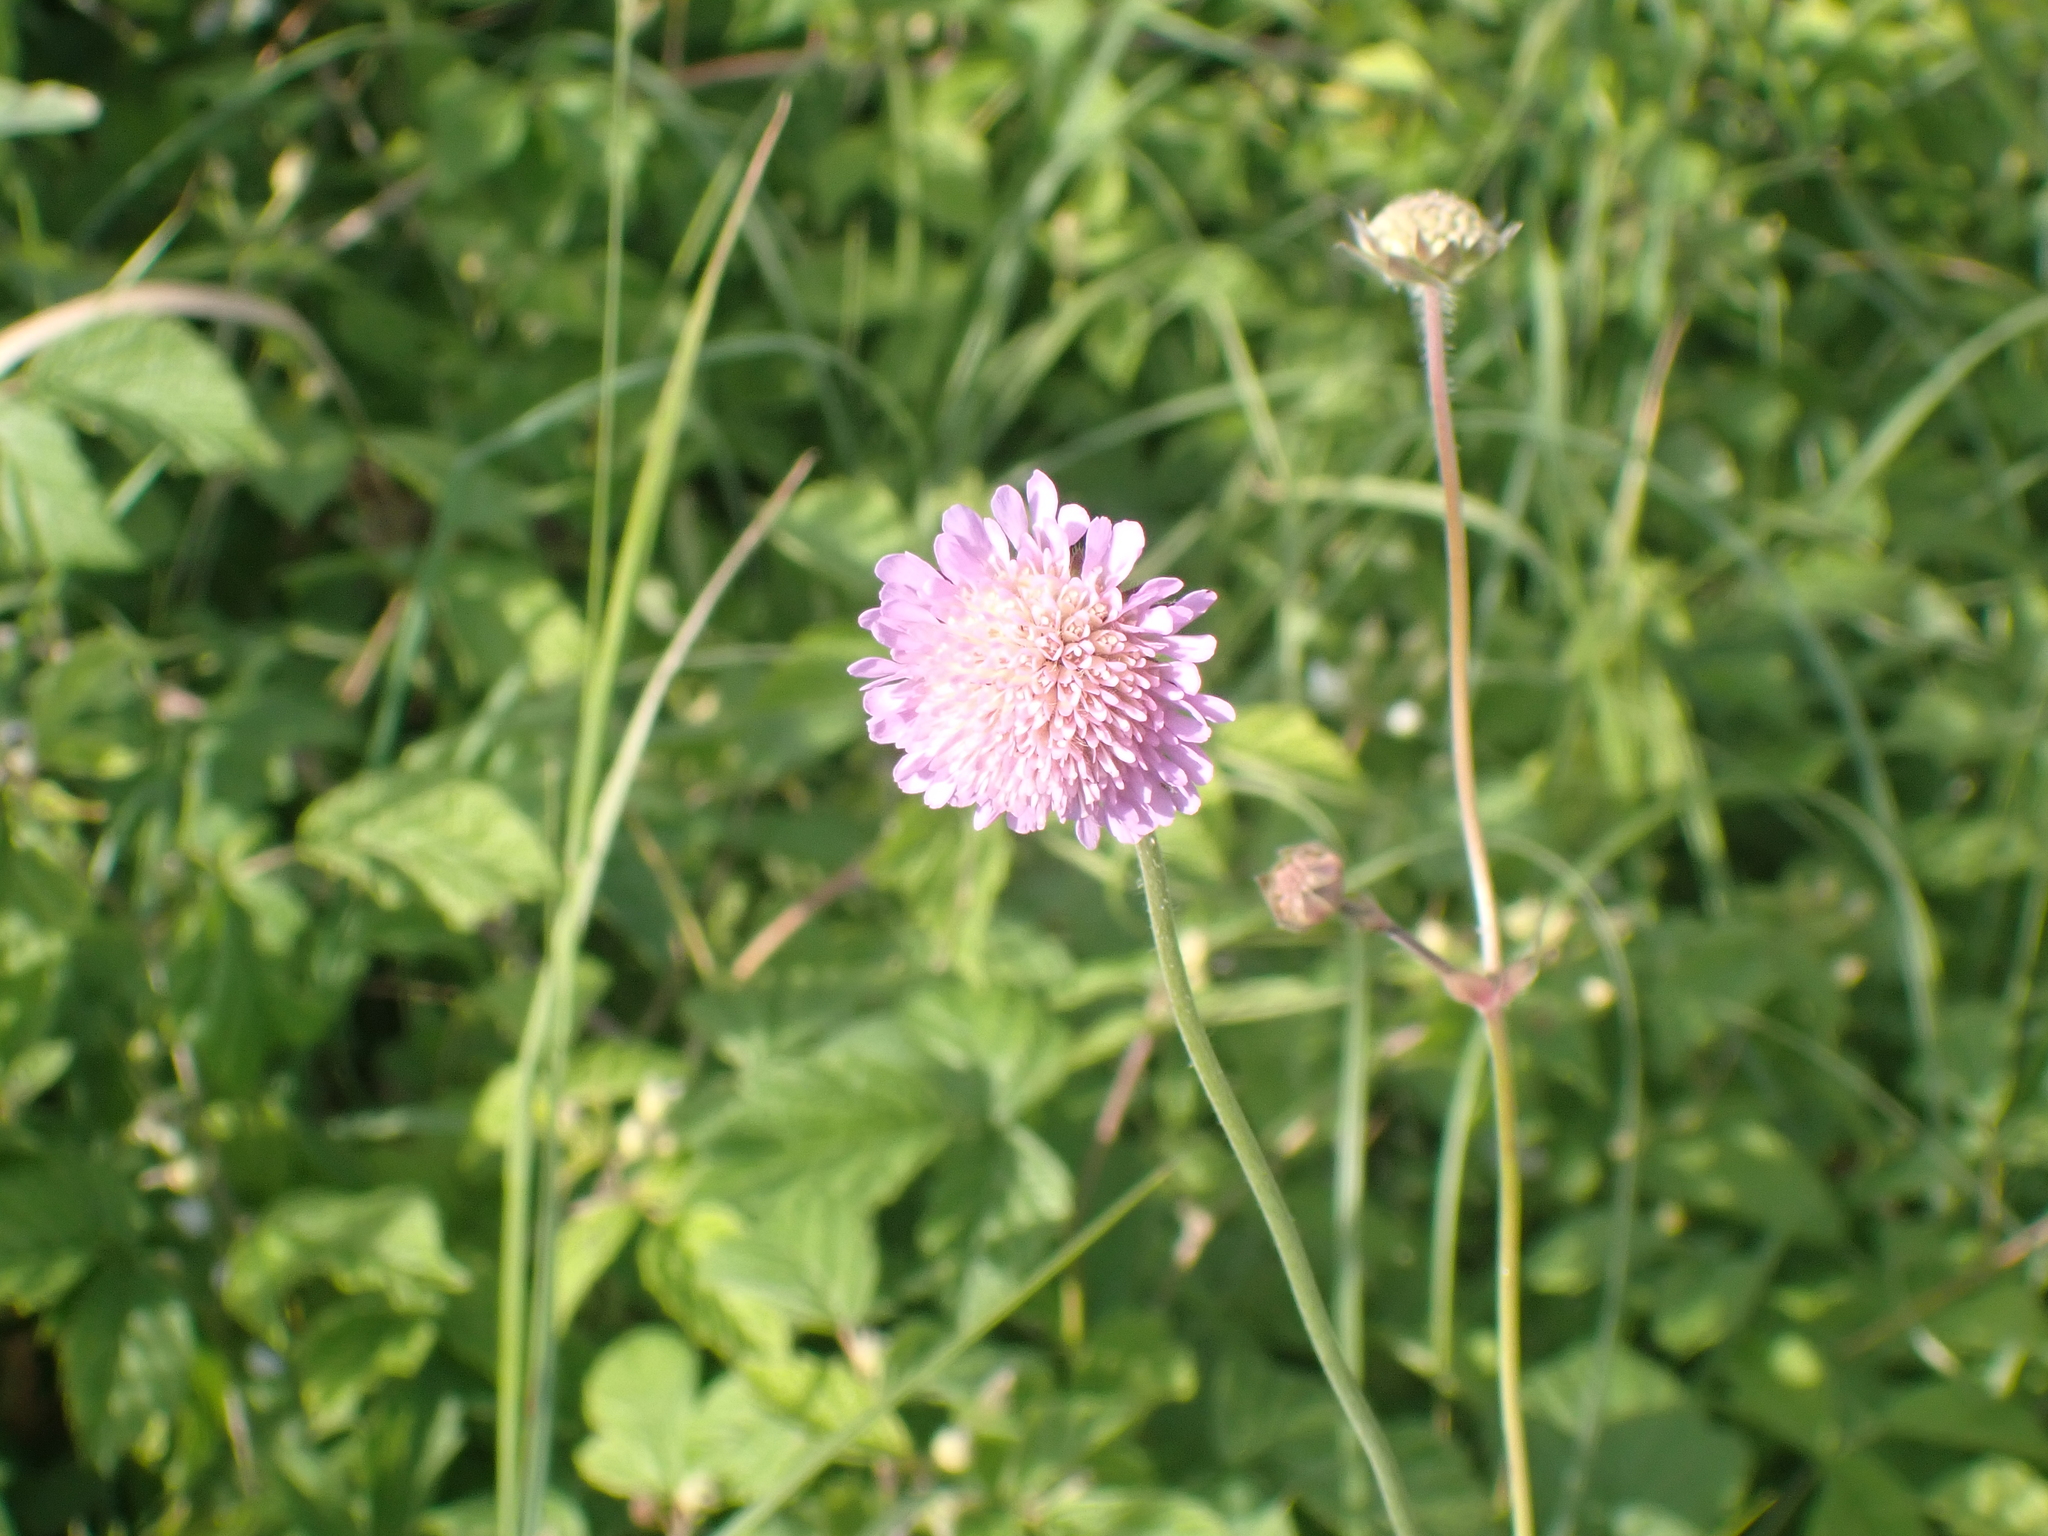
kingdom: Plantae
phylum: Tracheophyta
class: Magnoliopsida
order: Dipsacales
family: Caprifoliaceae
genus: Knautia
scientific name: Knautia arvensis
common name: Field scabiosa
